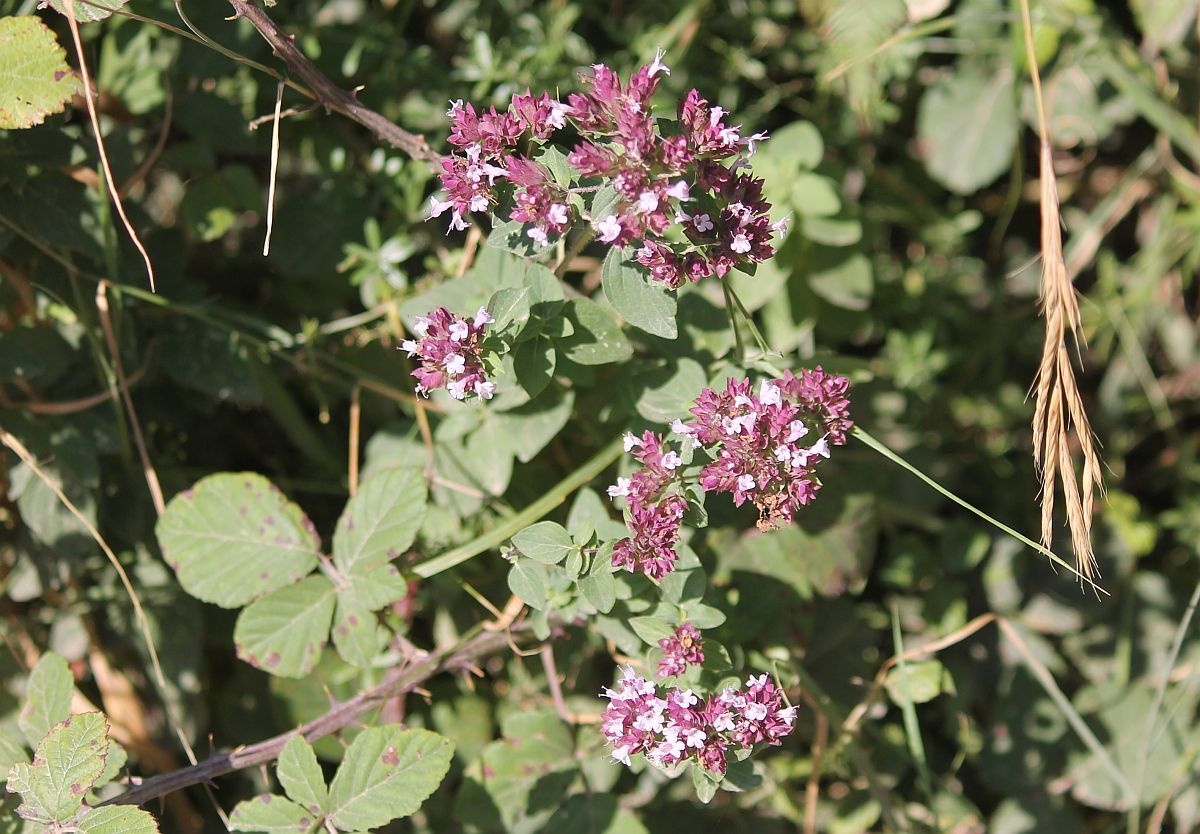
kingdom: Plantae
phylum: Tracheophyta
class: Magnoliopsida
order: Lamiales
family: Lamiaceae
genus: Origanum
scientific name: Origanum vulgare
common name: Wild marjoram
